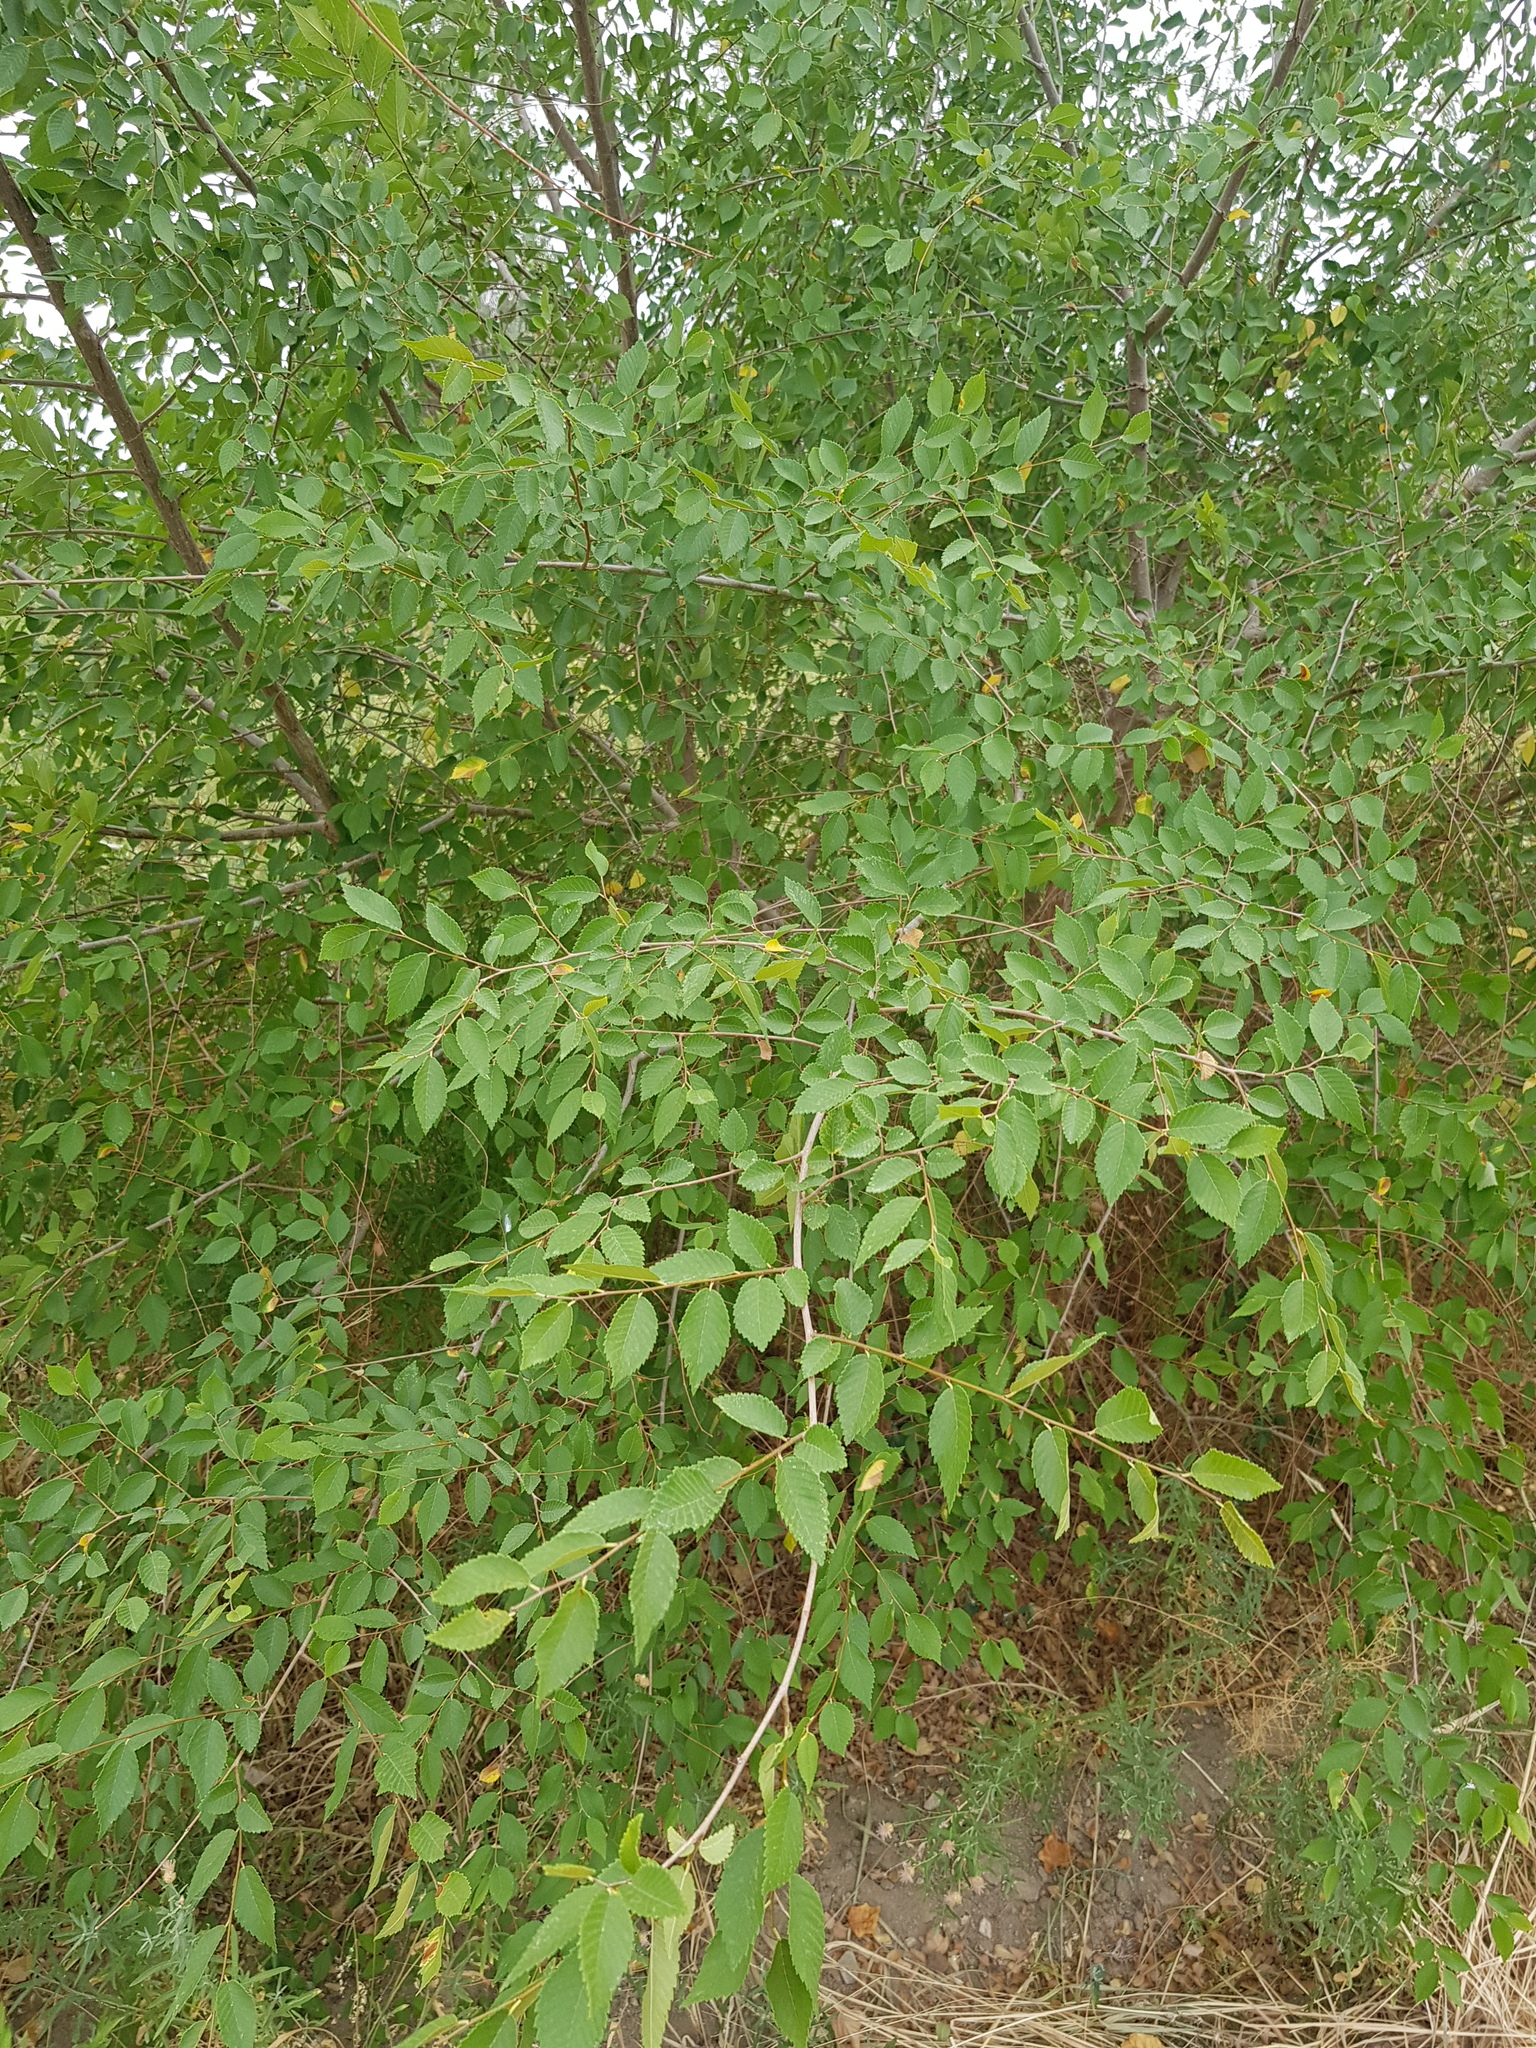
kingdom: Plantae
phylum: Tracheophyta
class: Magnoliopsida
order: Rosales
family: Ulmaceae
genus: Ulmus
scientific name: Ulmus pumila
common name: Siberian elm
